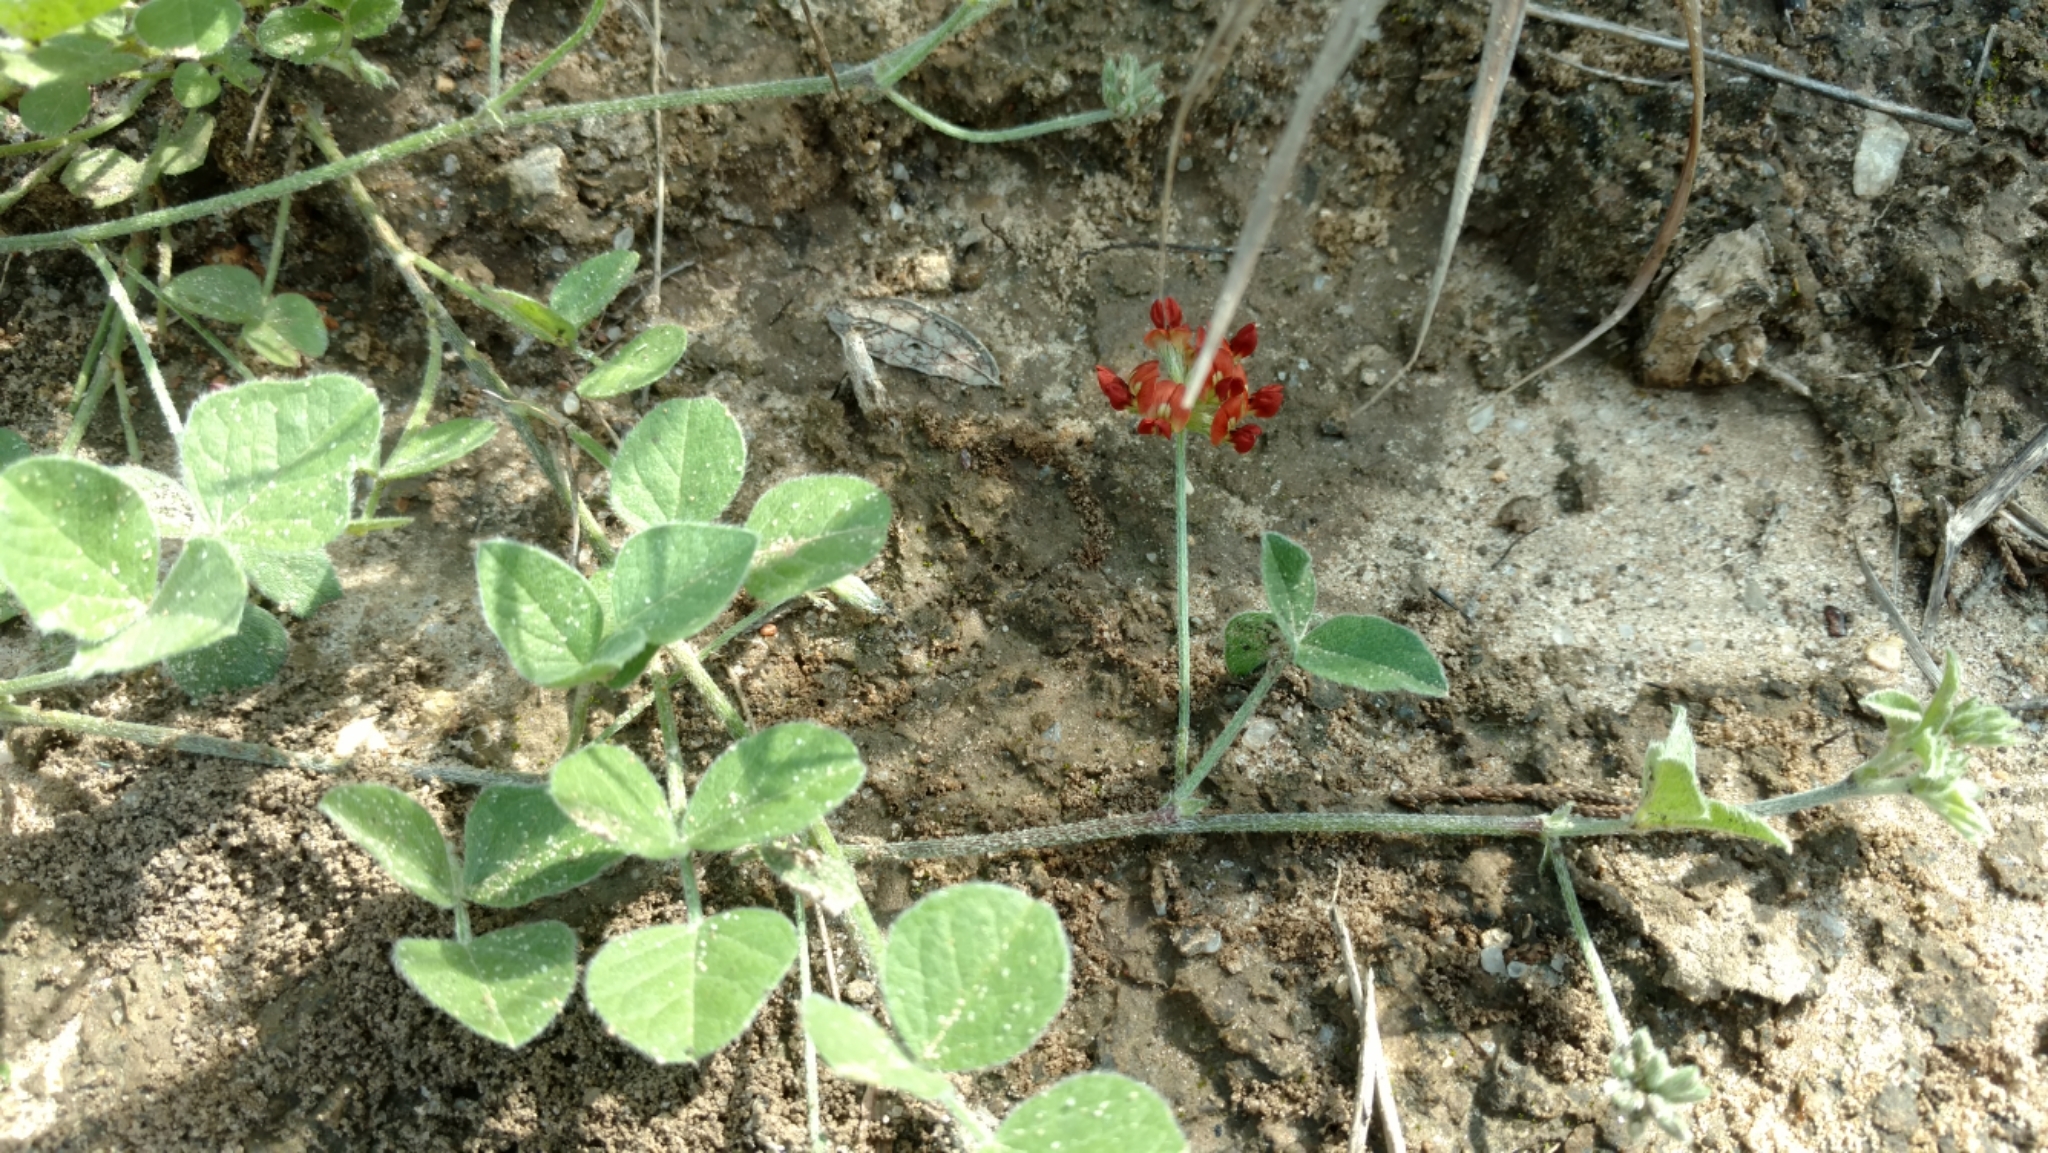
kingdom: Plantae
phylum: Tracheophyta
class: Magnoliopsida
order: Fabales
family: Fabaceae
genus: Pediomelum
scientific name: Pediomelum rhombifolium
